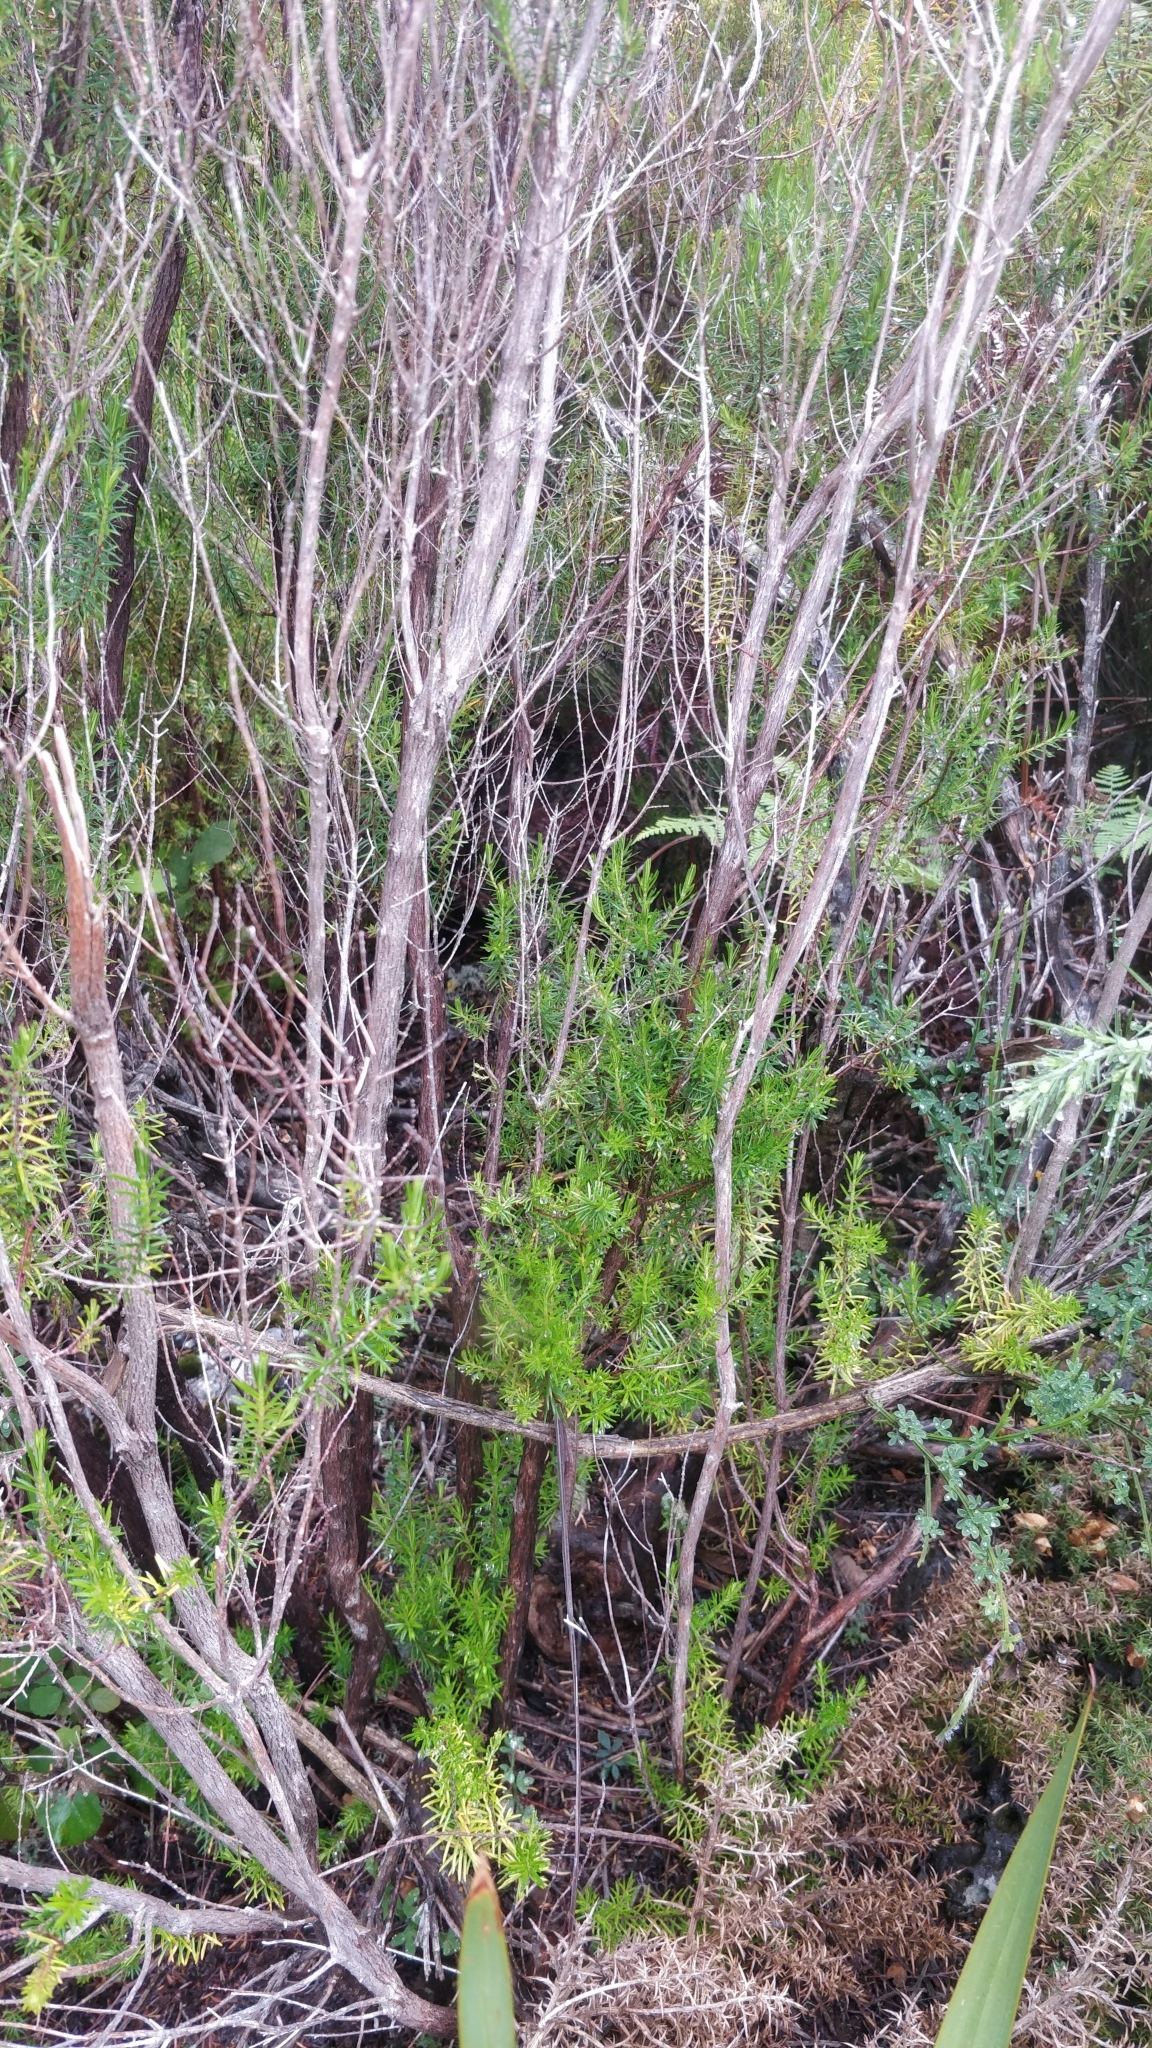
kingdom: Plantae
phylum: Tracheophyta
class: Magnoliopsida
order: Ericales
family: Ericaceae
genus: Erica
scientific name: Erica platycodon
